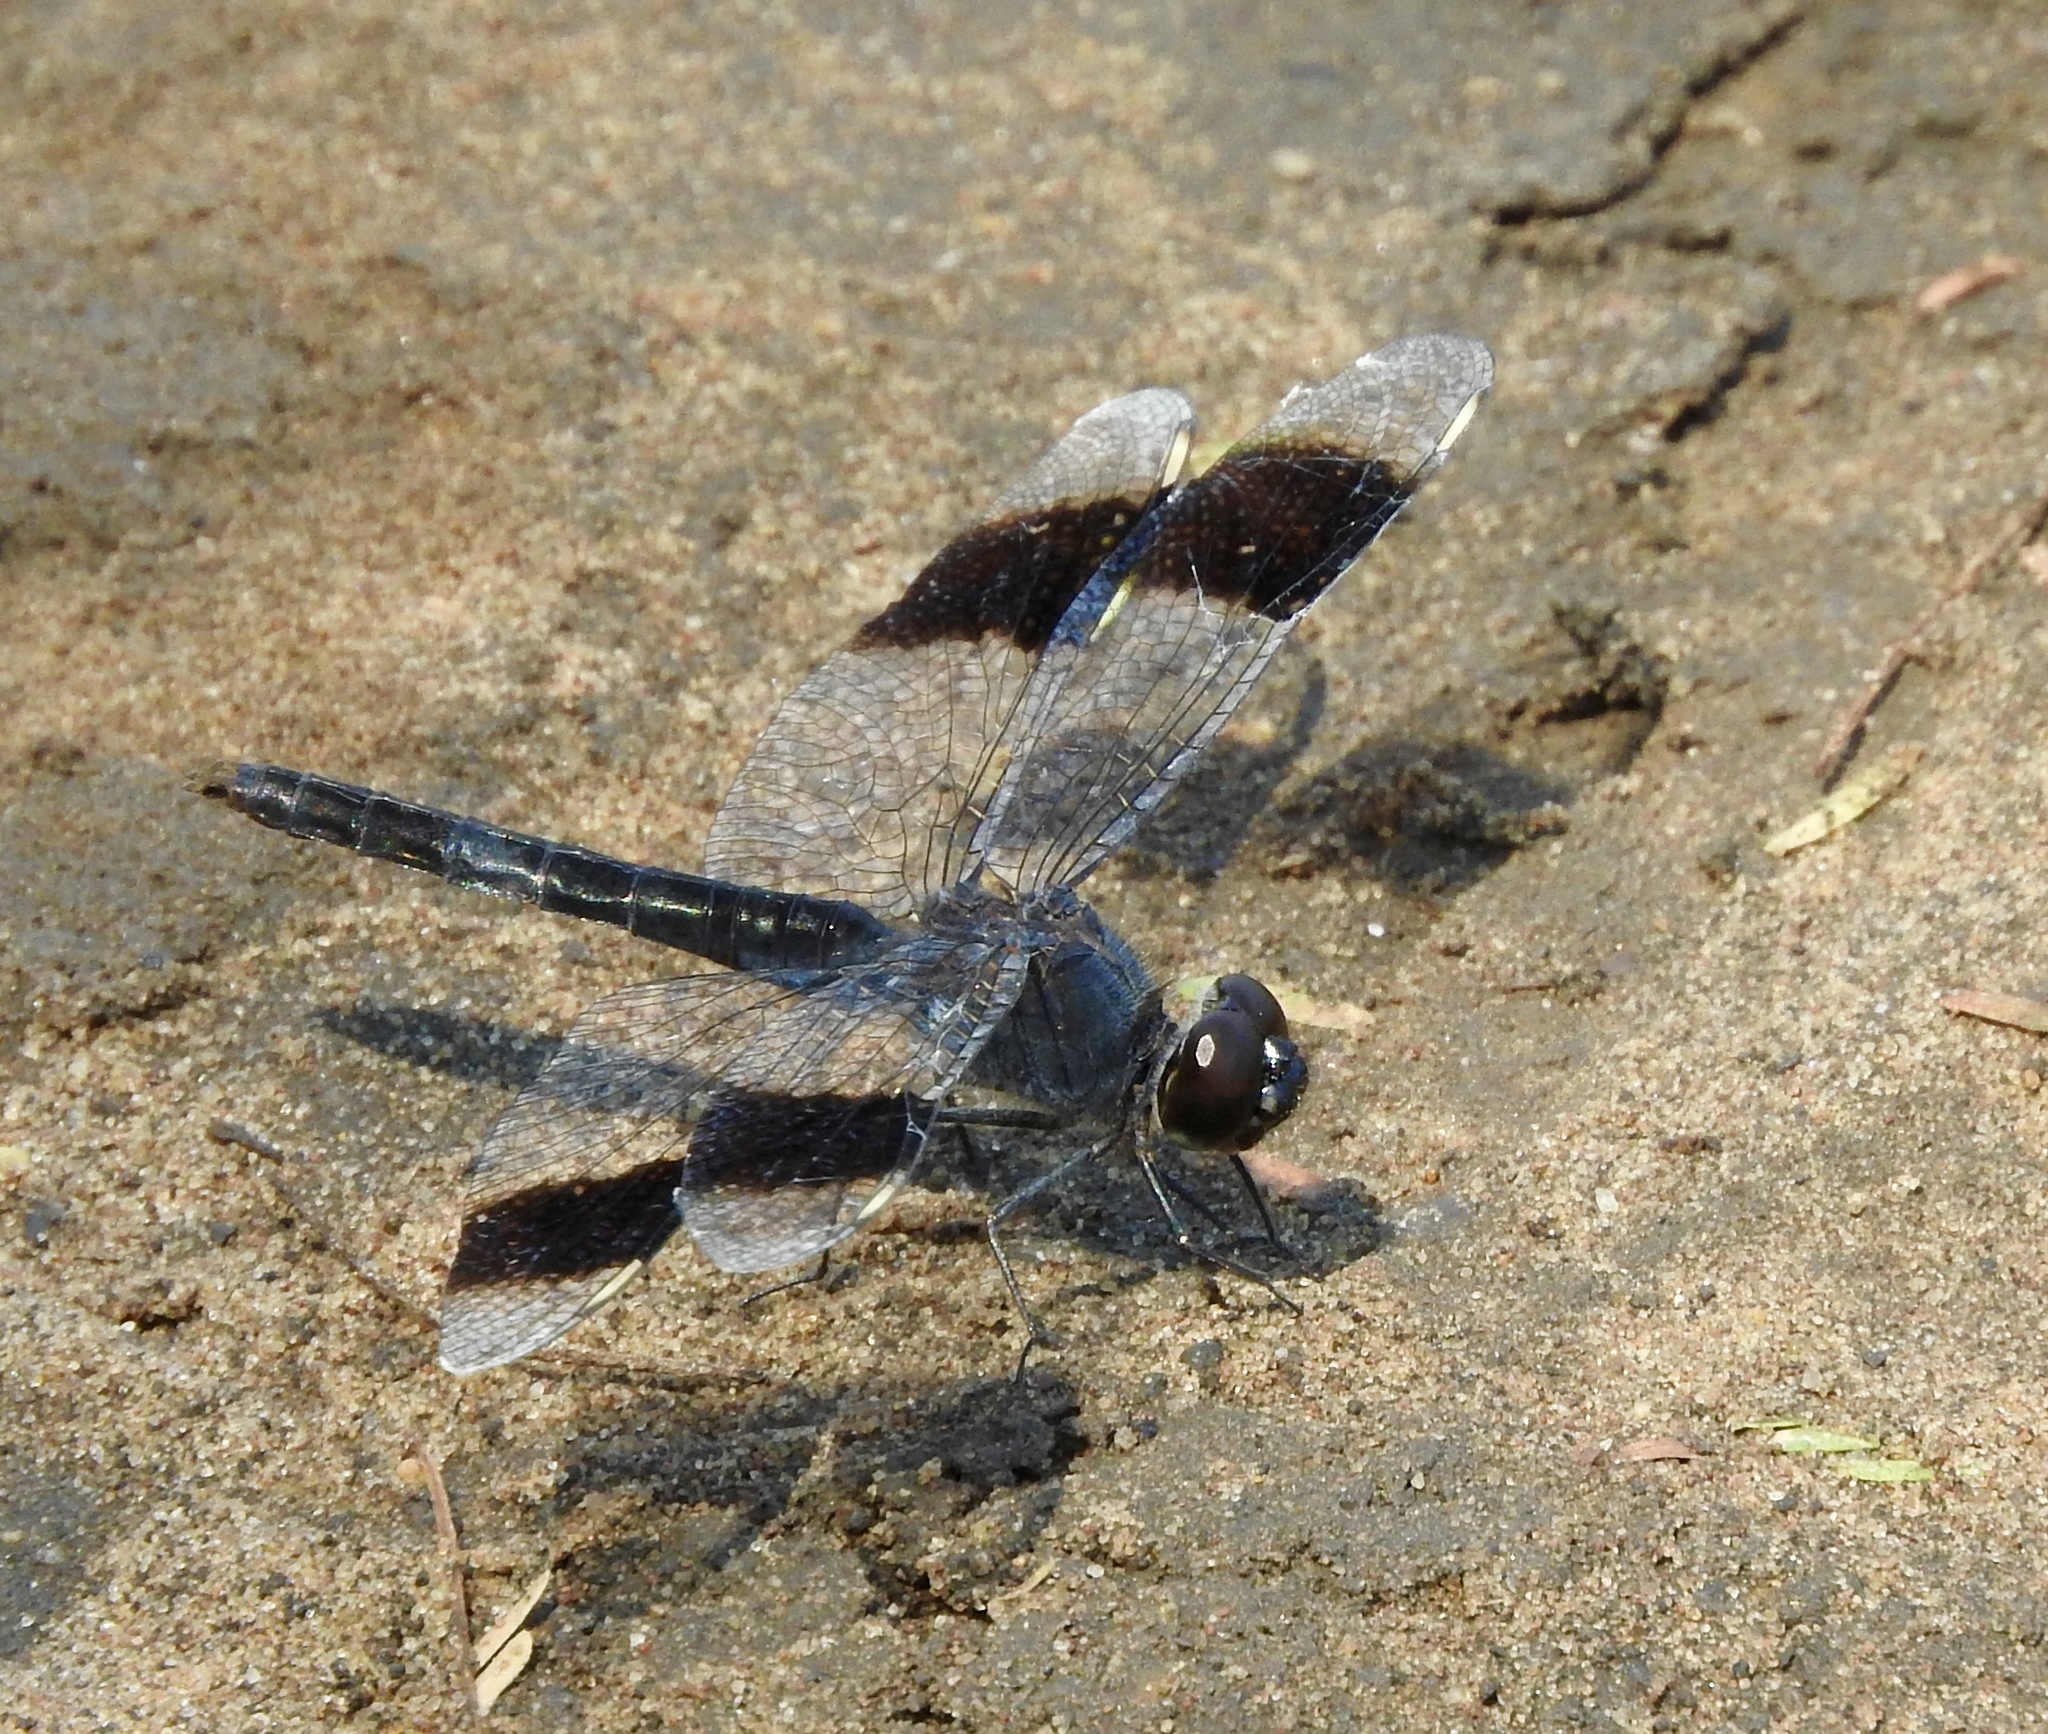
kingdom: Animalia
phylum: Arthropoda
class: Insecta
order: Odonata
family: Libellulidae
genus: Brachythemis
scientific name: Brachythemis leucosticta
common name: Banded groundling
